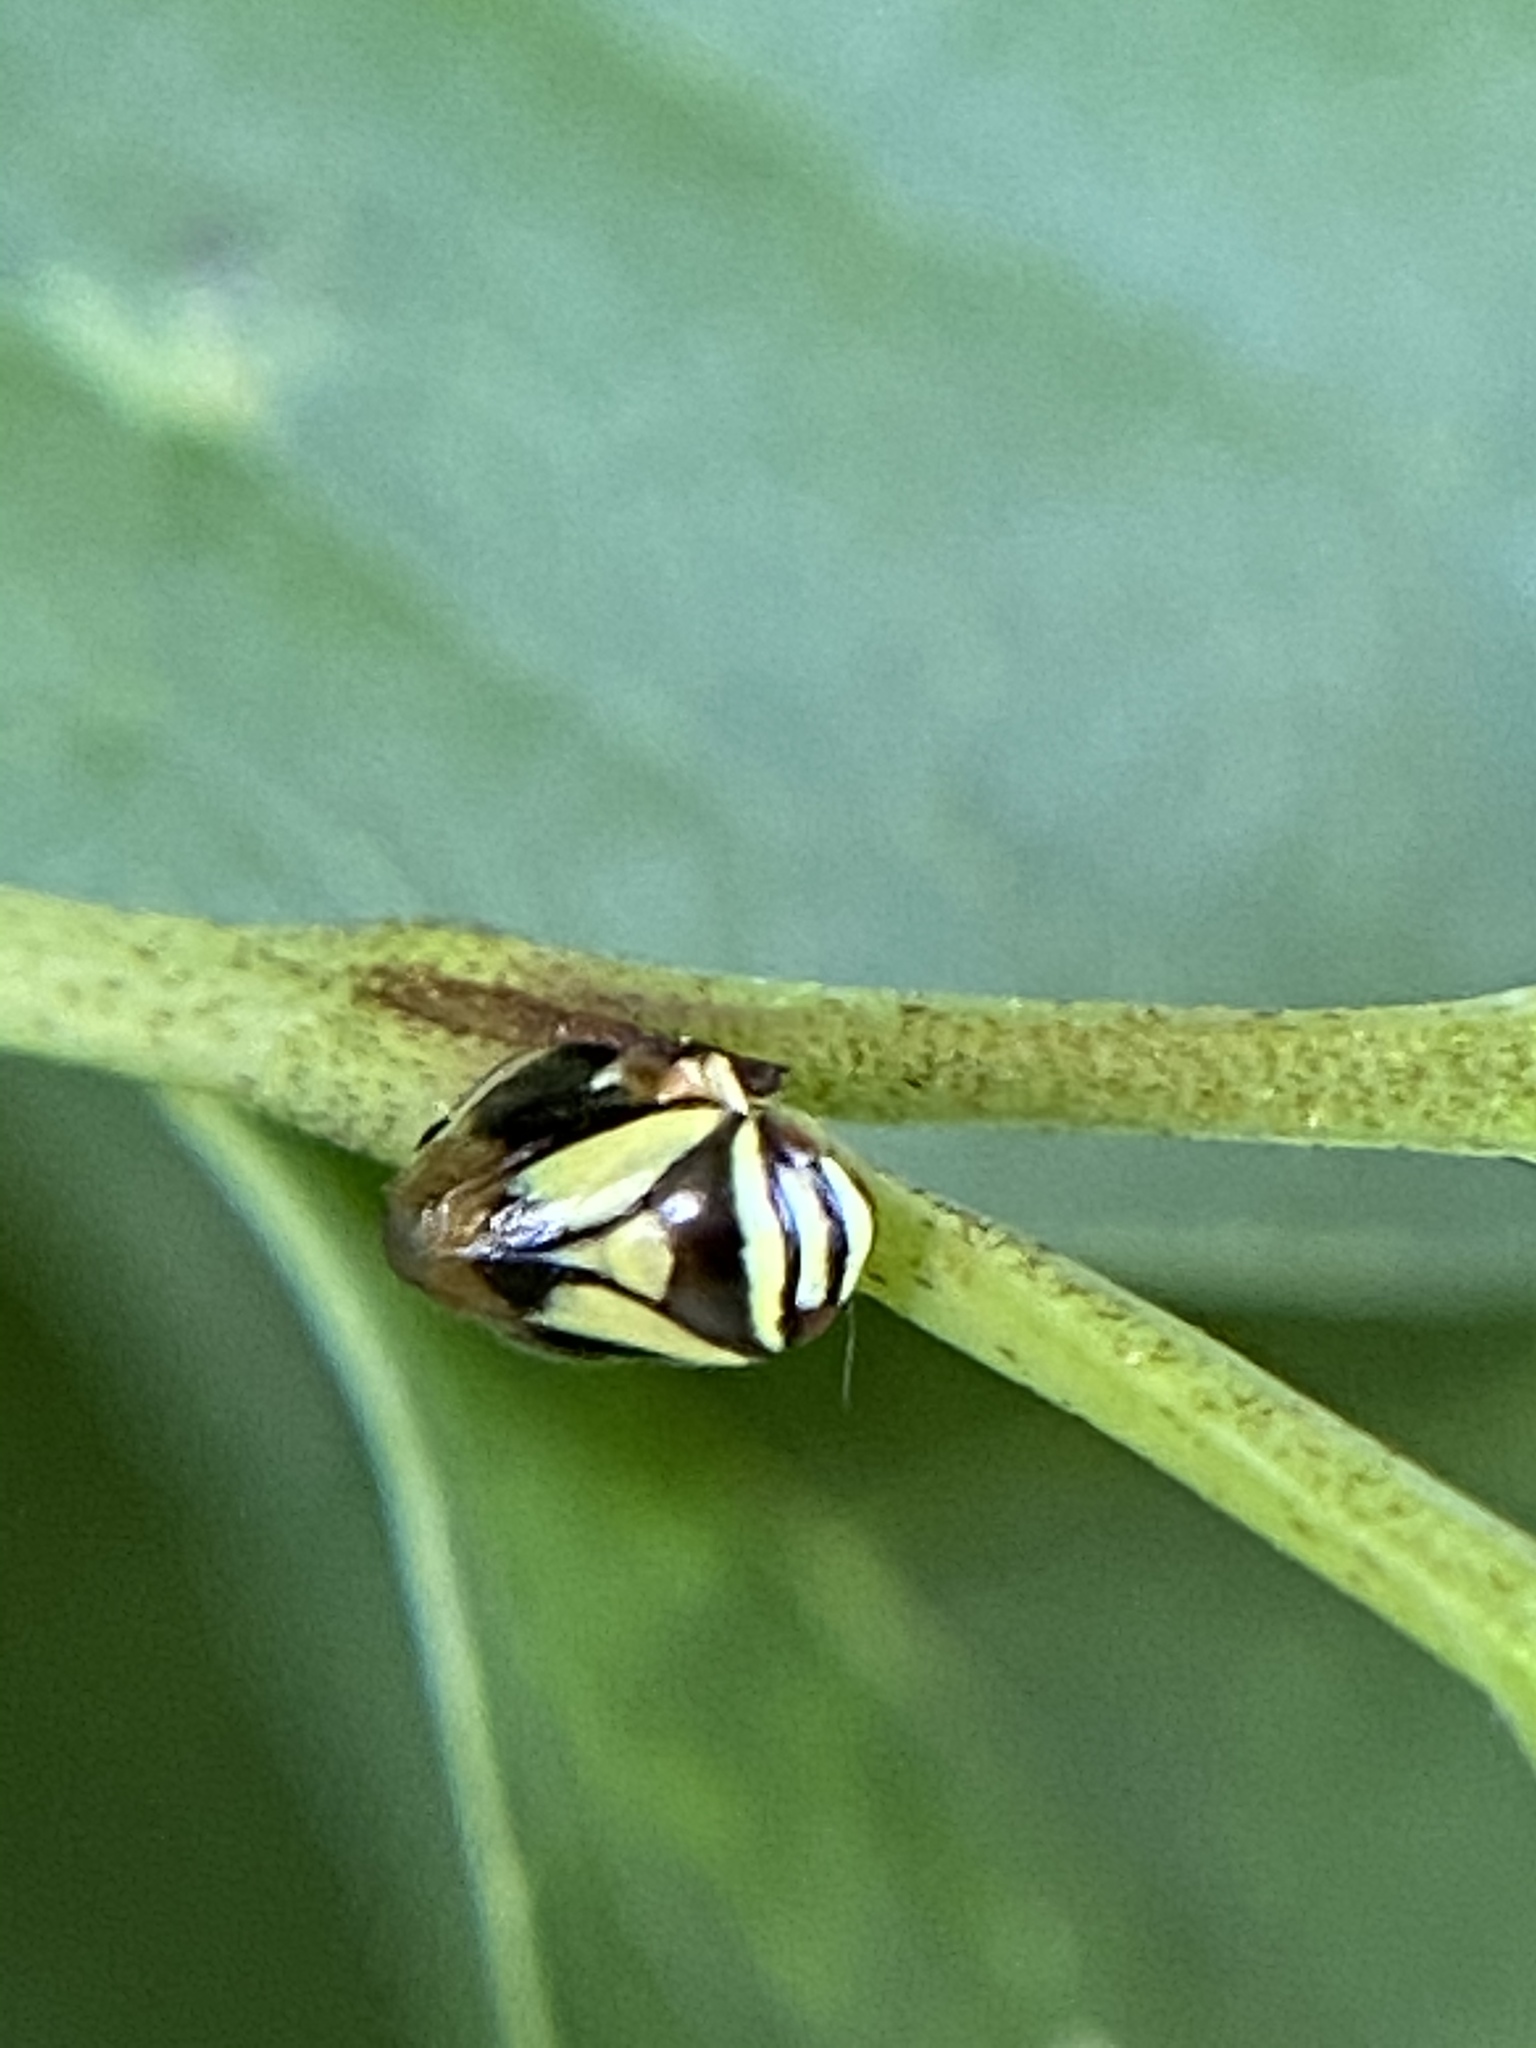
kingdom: Animalia
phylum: Arthropoda
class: Insecta
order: Hemiptera
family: Clastopteridae
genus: Clastoptera
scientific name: Clastoptera proteus
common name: Dogwood spittlebug
